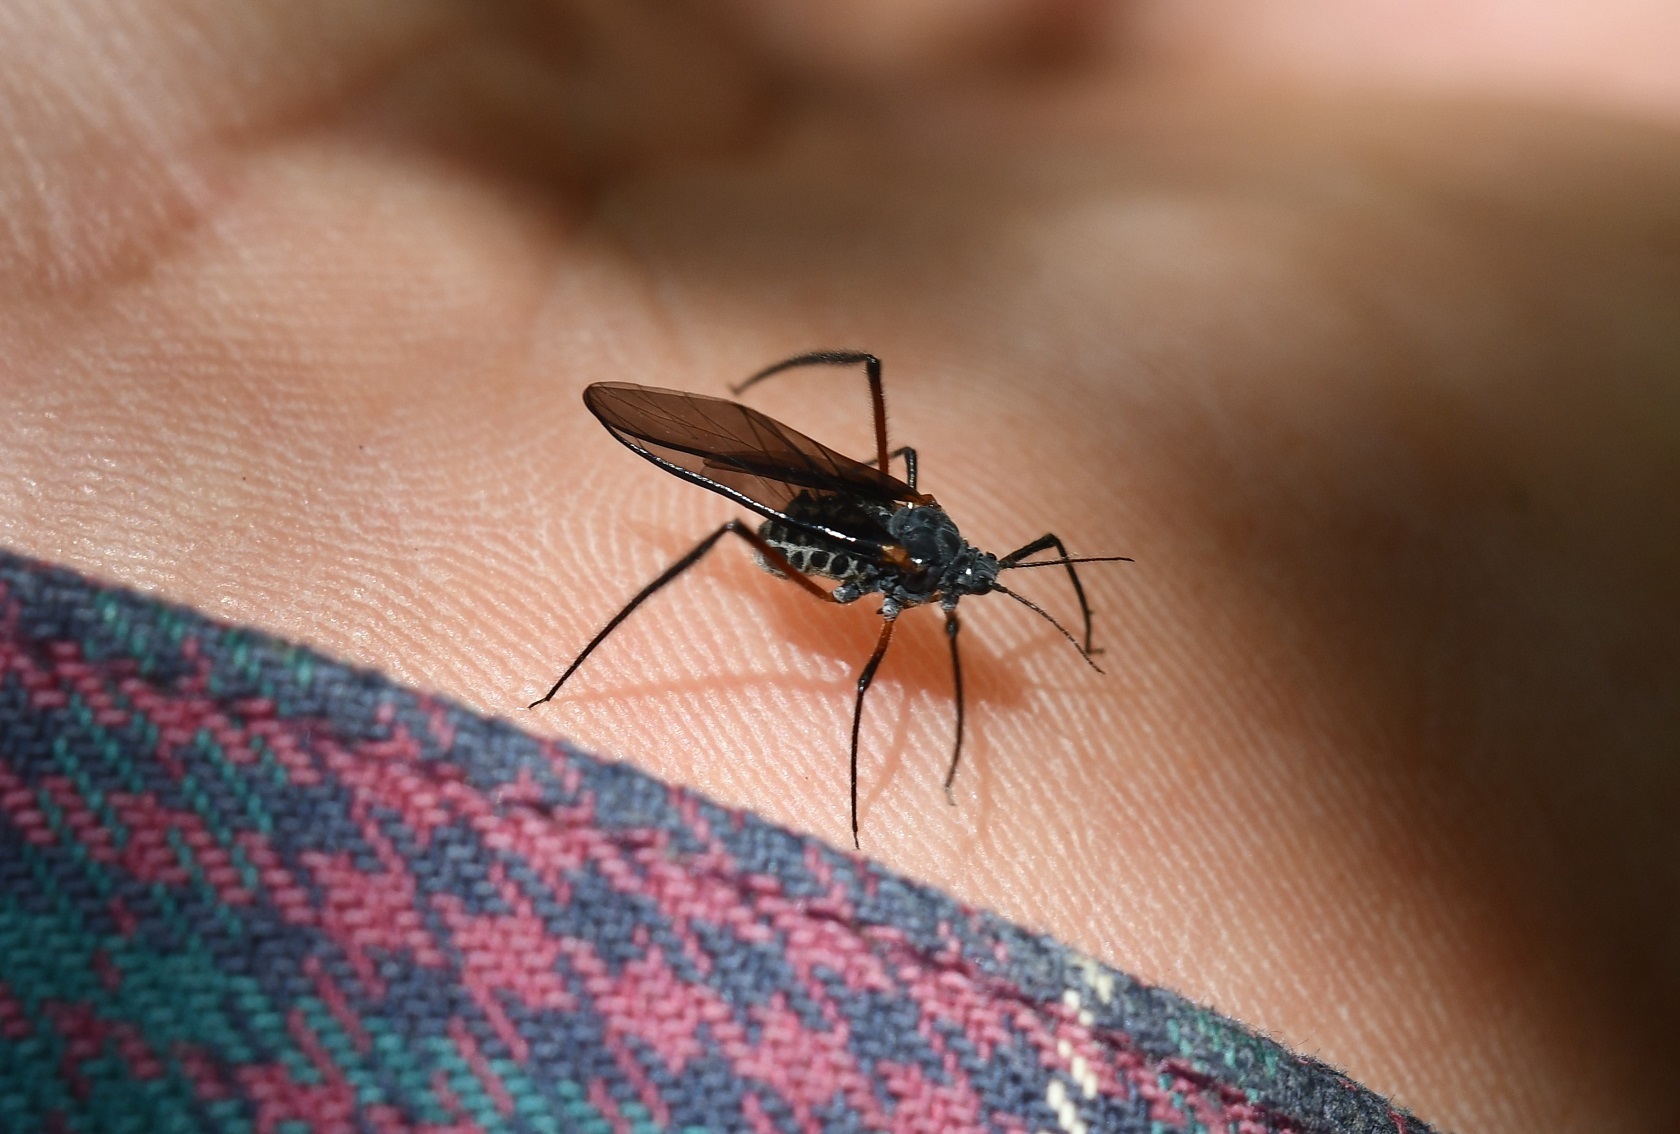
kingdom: Animalia
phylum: Arthropoda
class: Insecta
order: Hemiptera
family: Aphididae
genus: Longistigma
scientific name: Longistigma caryae
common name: Giant bark aphid
